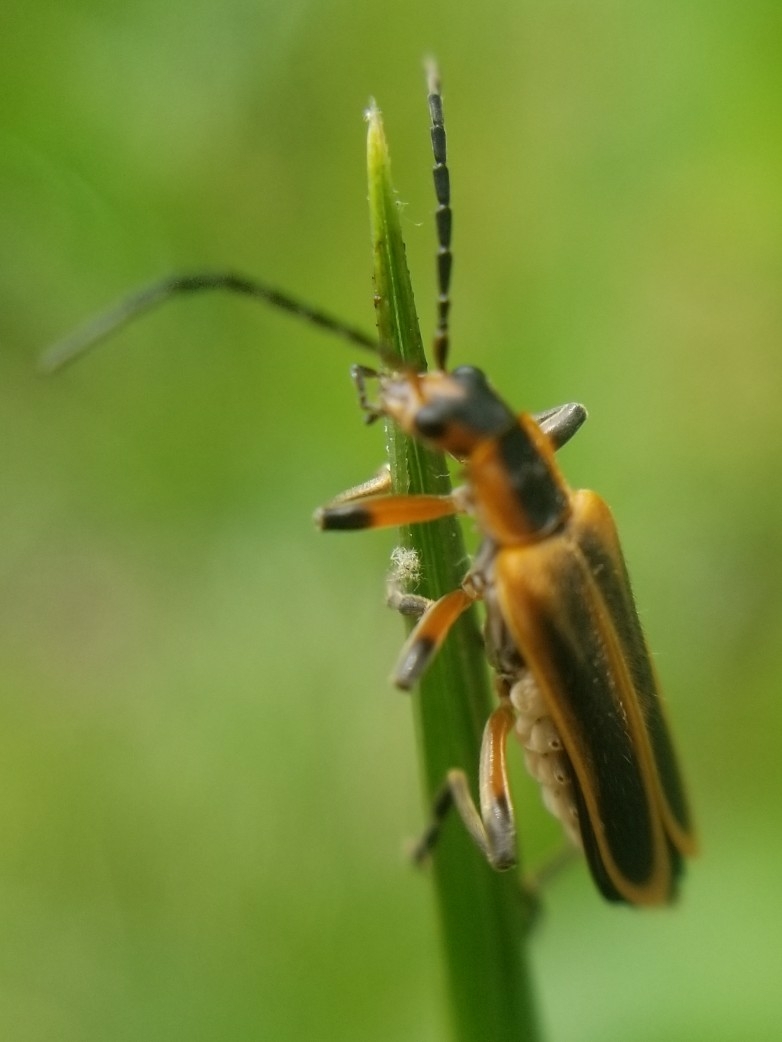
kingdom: Animalia
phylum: Arthropoda
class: Insecta
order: Coleoptera
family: Cantharidae
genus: Chauliognathus
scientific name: Chauliognathus marginatus
